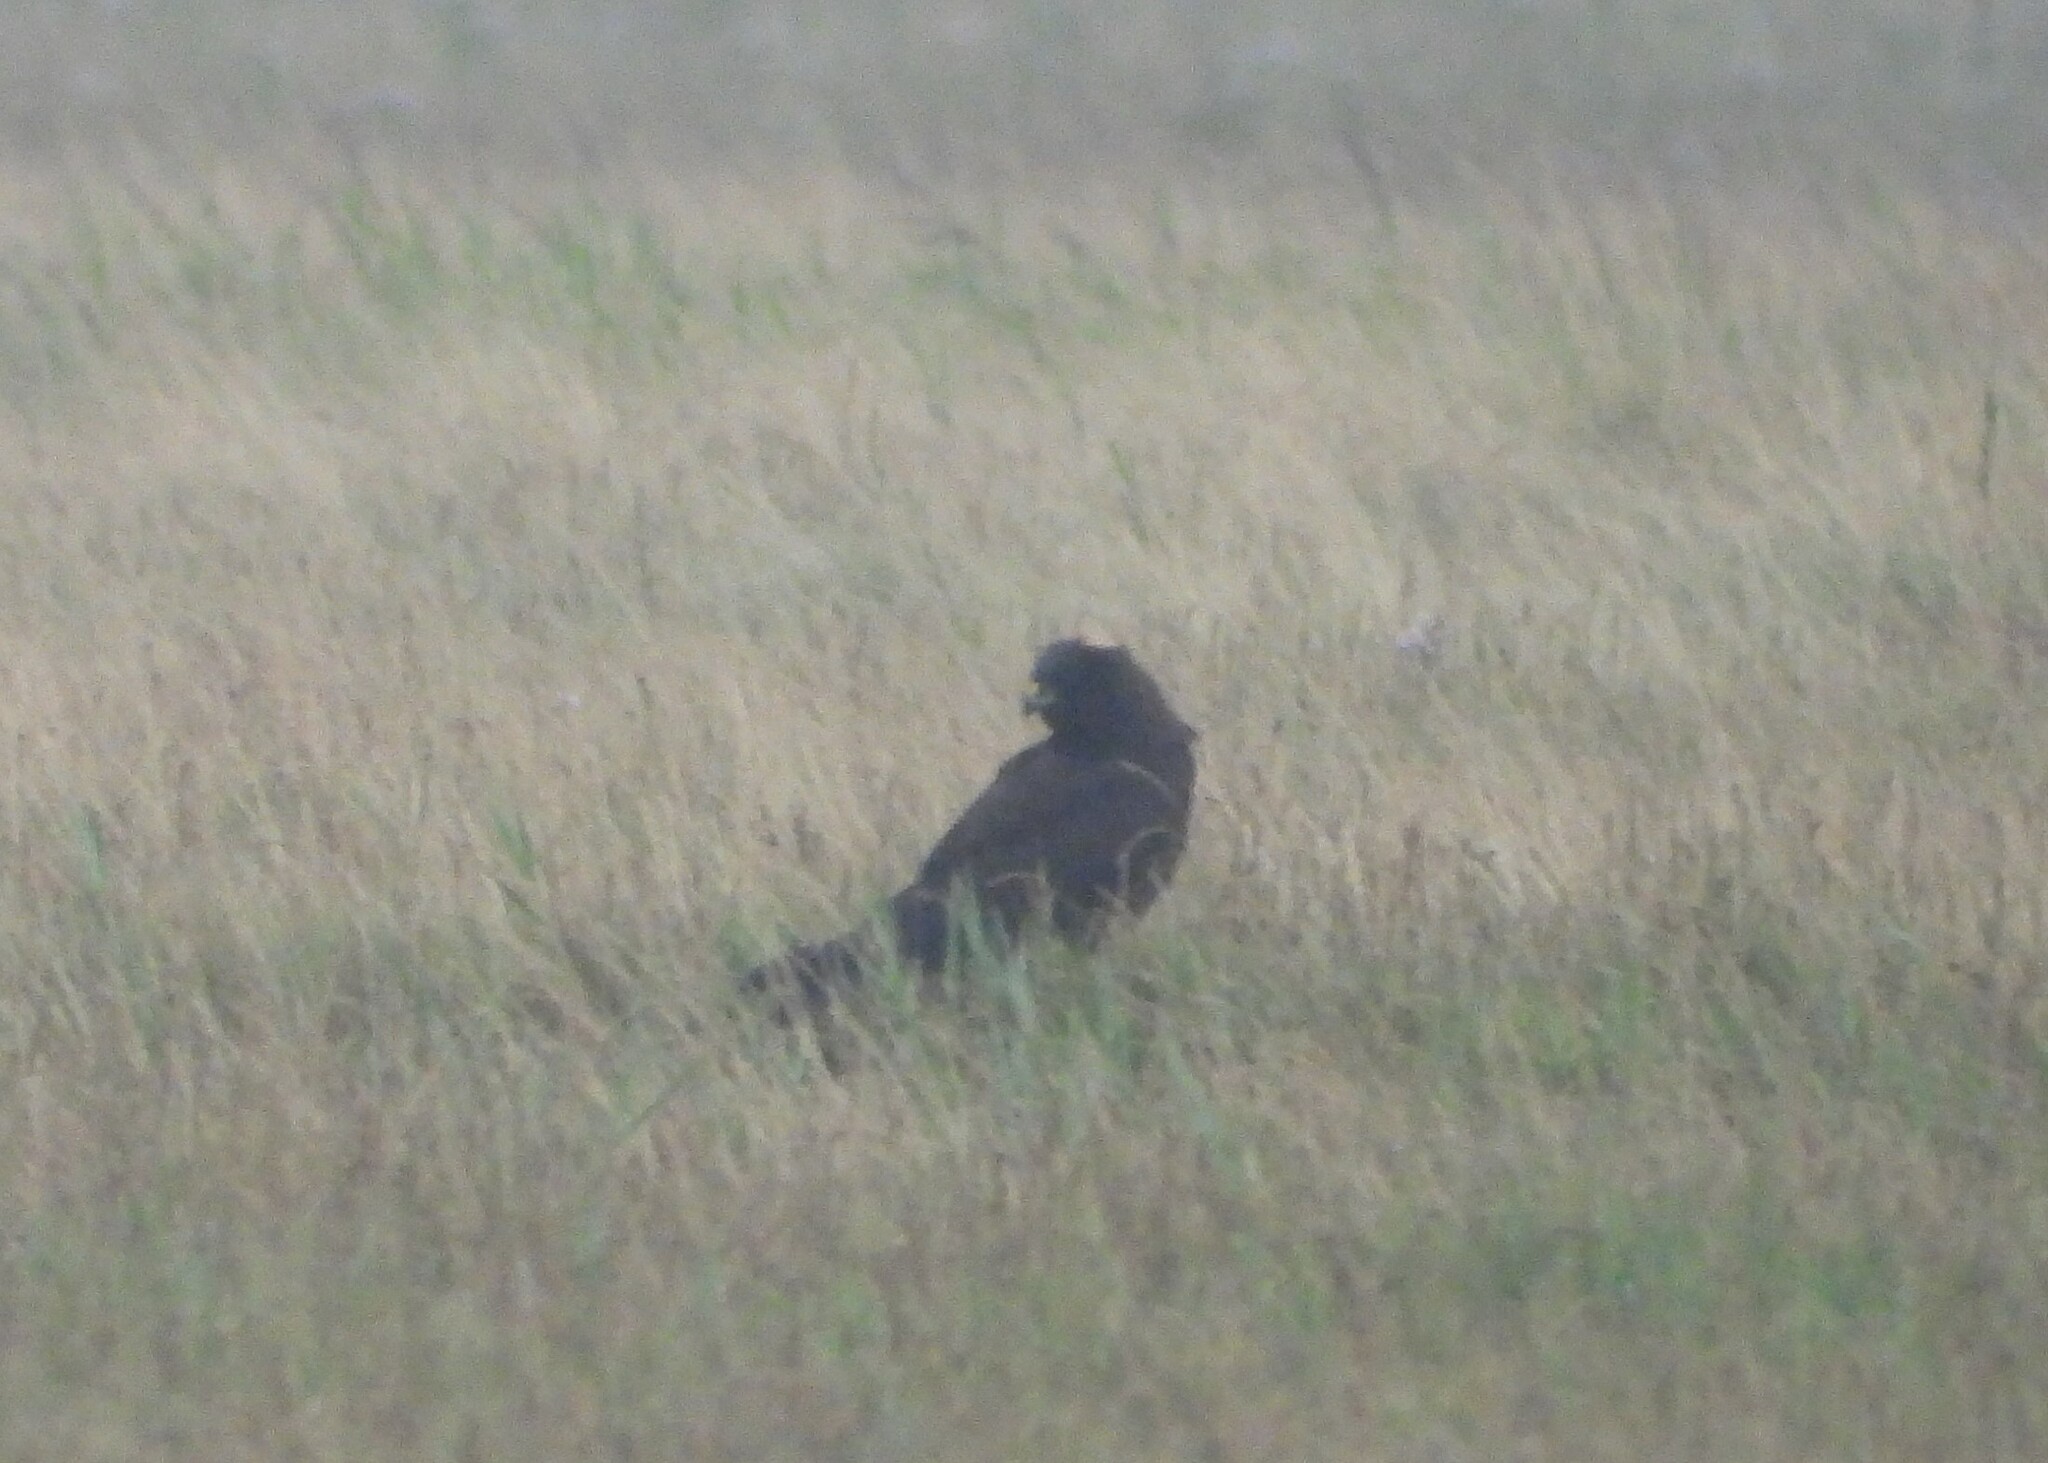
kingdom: Animalia
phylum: Chordata
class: Aves
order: Accipitriformes
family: Accipitridae
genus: Circus
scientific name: Circus aeruginosus
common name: Western marsh harrier
